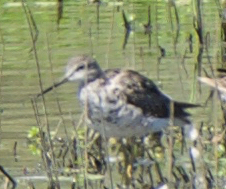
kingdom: Animalia
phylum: Chordata
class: Aves
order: Charadriiformes
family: Scolopacidae
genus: Tringa
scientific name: Tringa melanoleuca
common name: Greater yellowlegs
